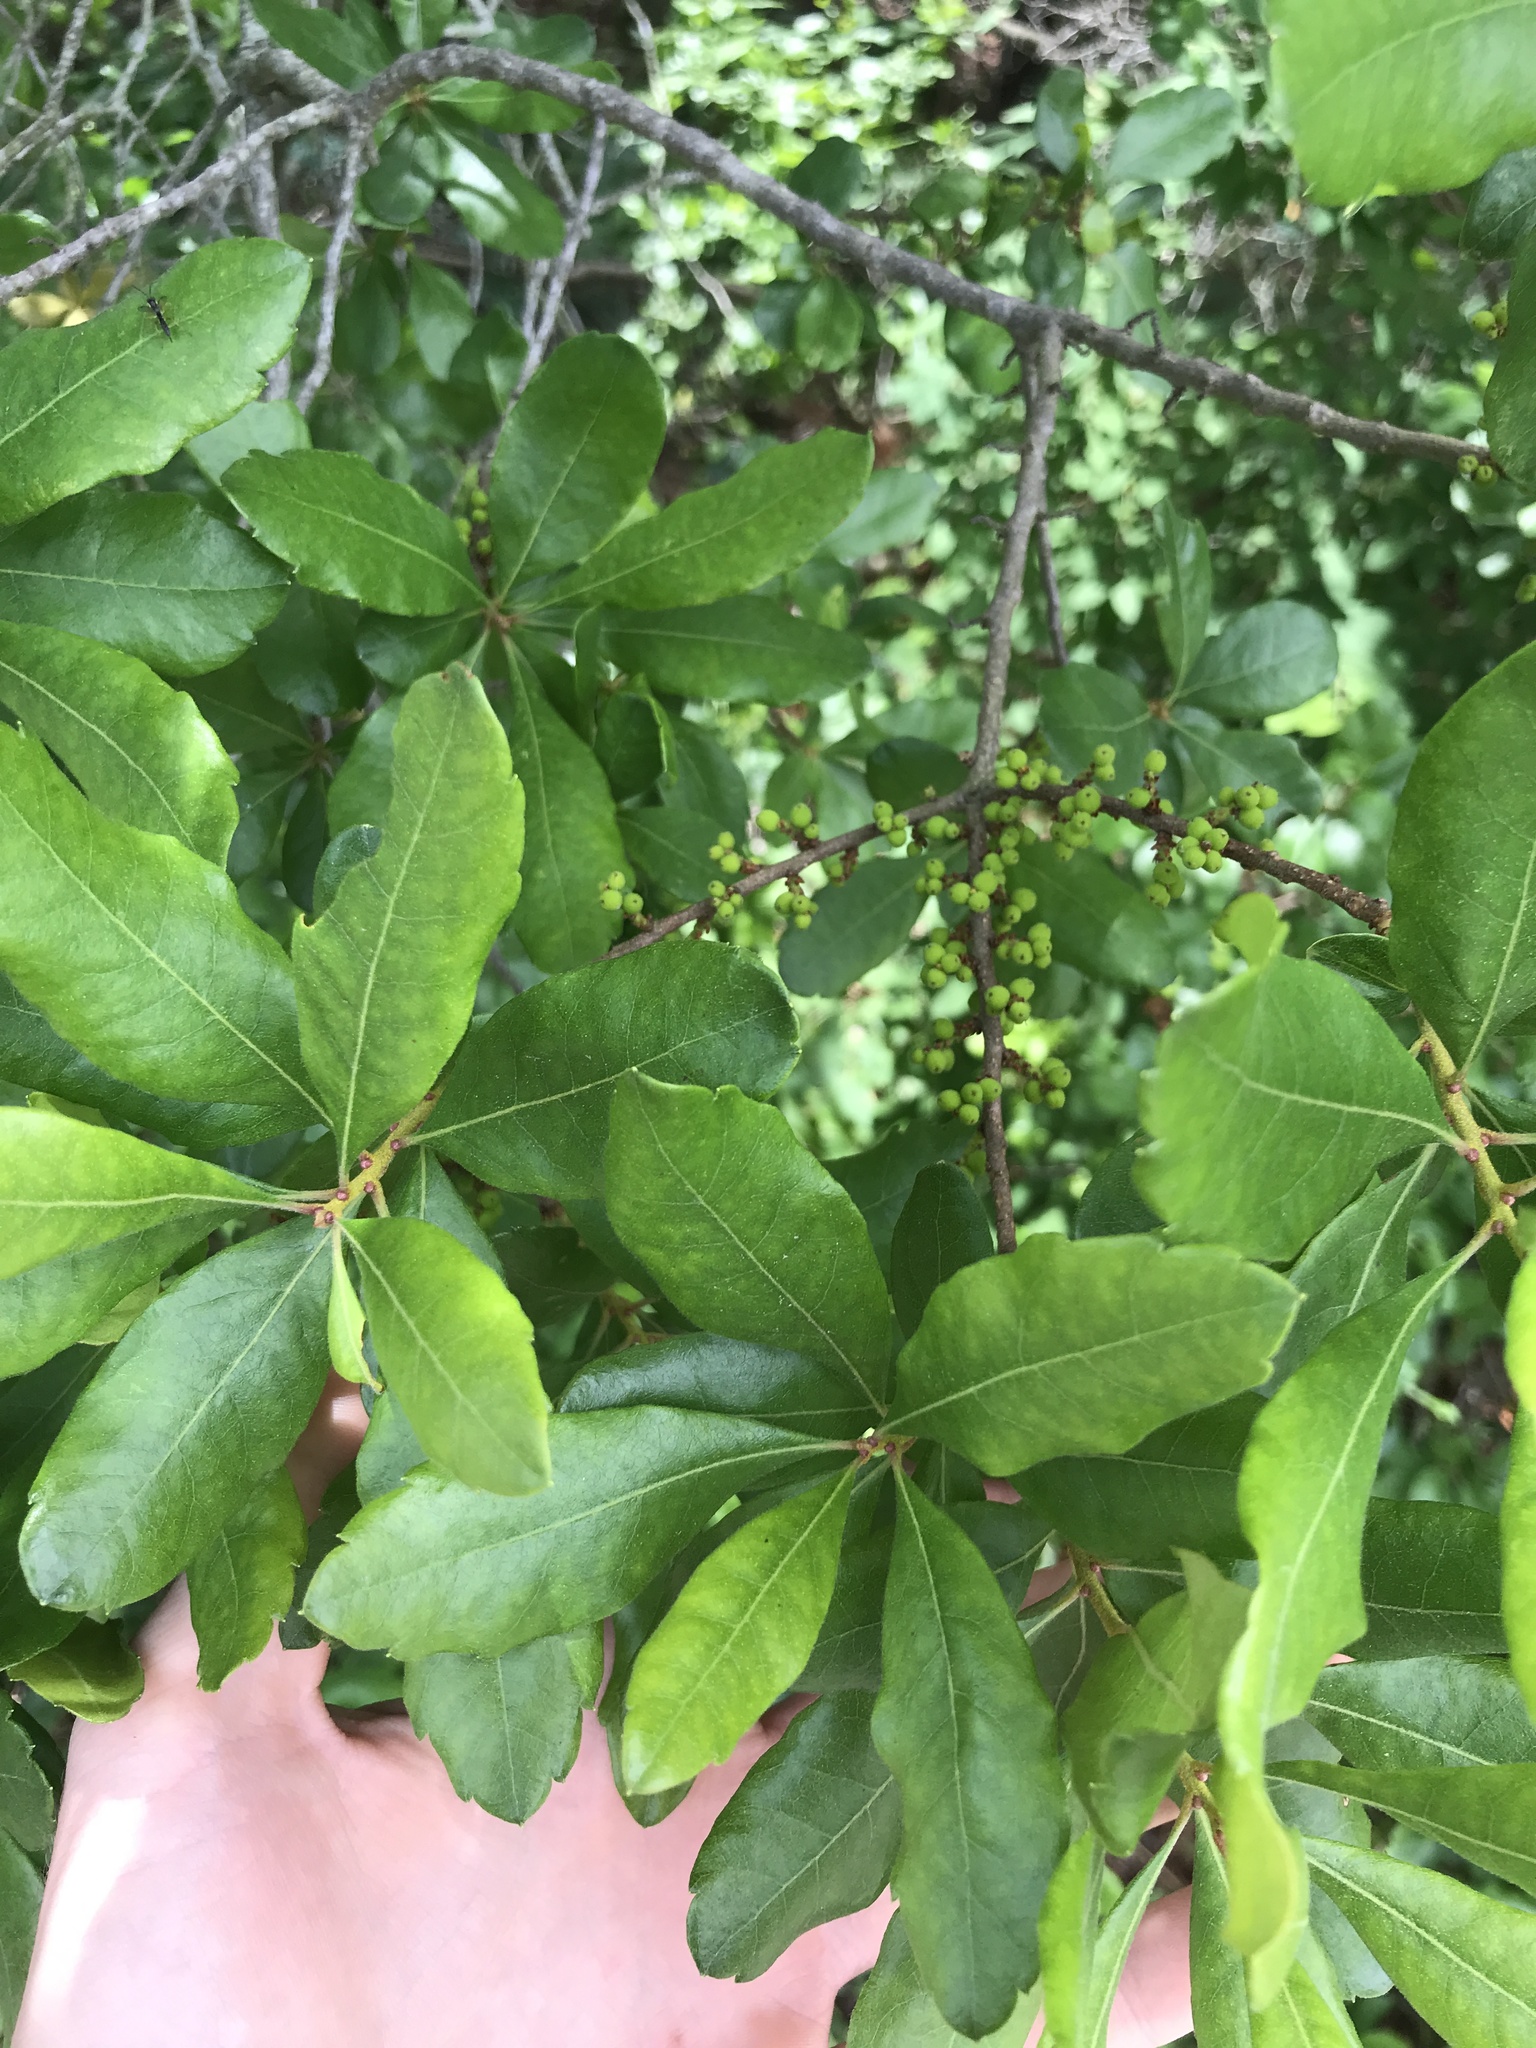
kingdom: Plantae
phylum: Tracheophyta
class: Magnoliopsida
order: Fagales
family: Myricaceae
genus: Morella
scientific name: Morella pensylvanica
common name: Northern bayberry
